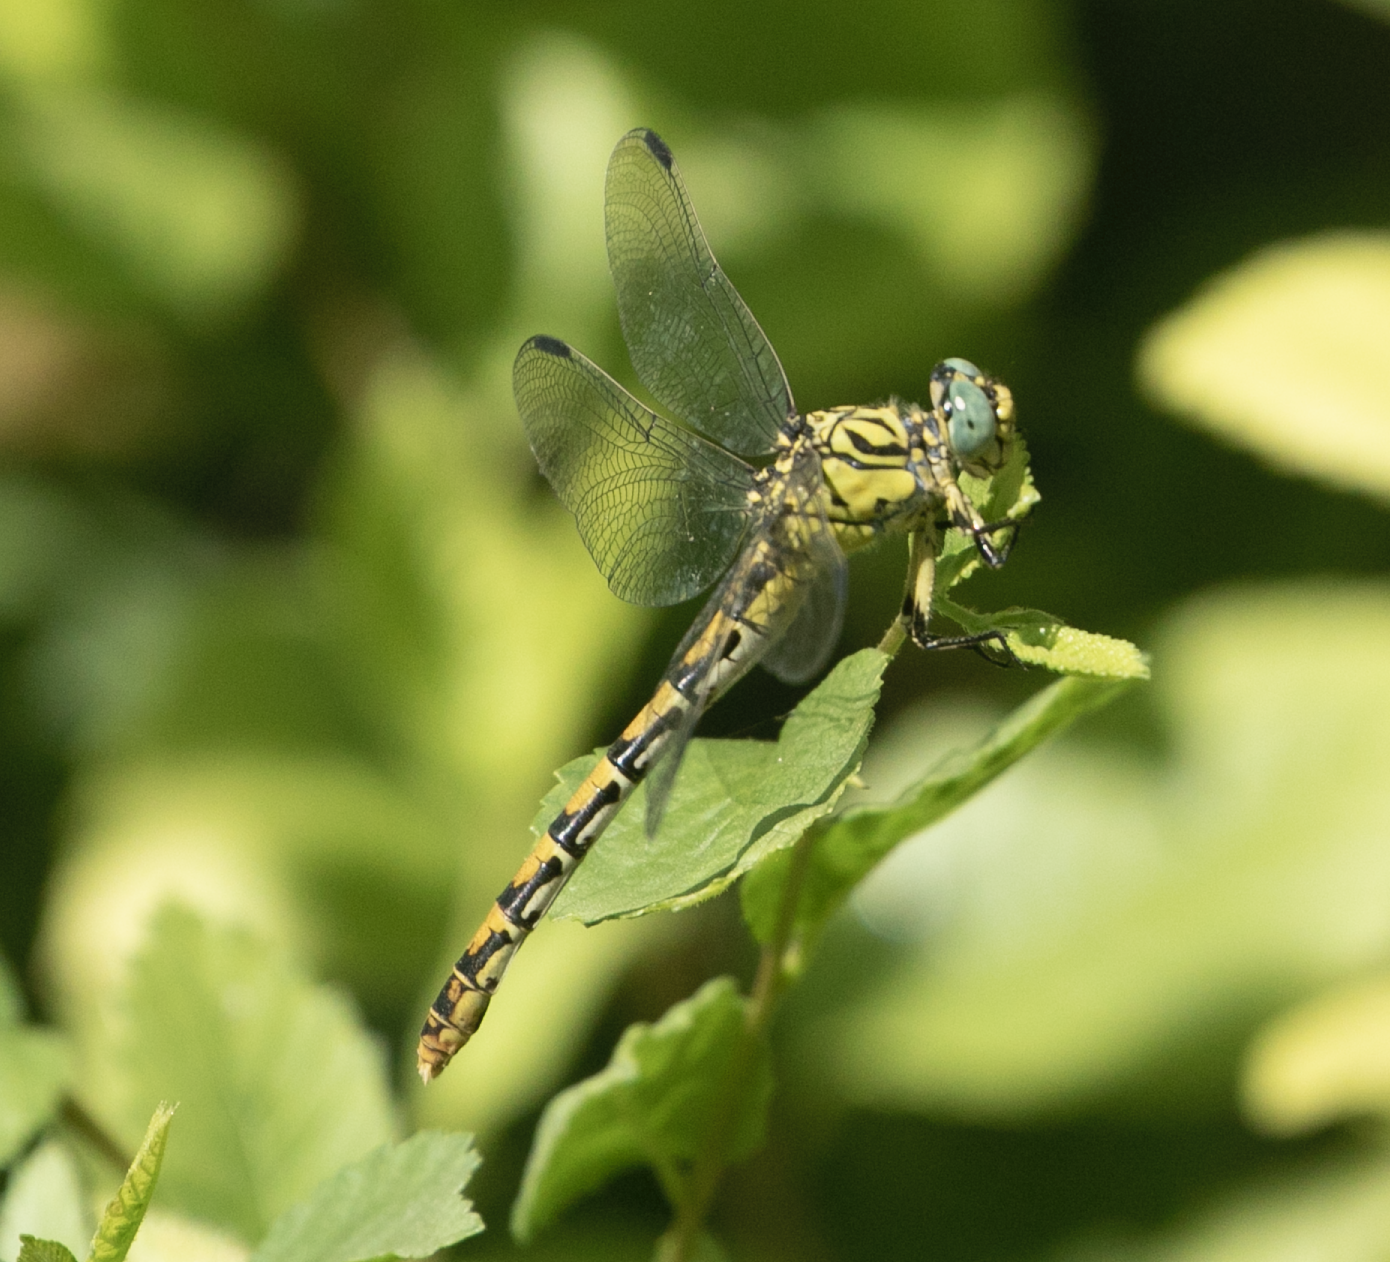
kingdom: Animalia
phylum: Arthropoda
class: Insecta
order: Odonata
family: Gomphidae
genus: Onychogomphus
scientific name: Onychogomphus forcipatus
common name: Small pincertail
